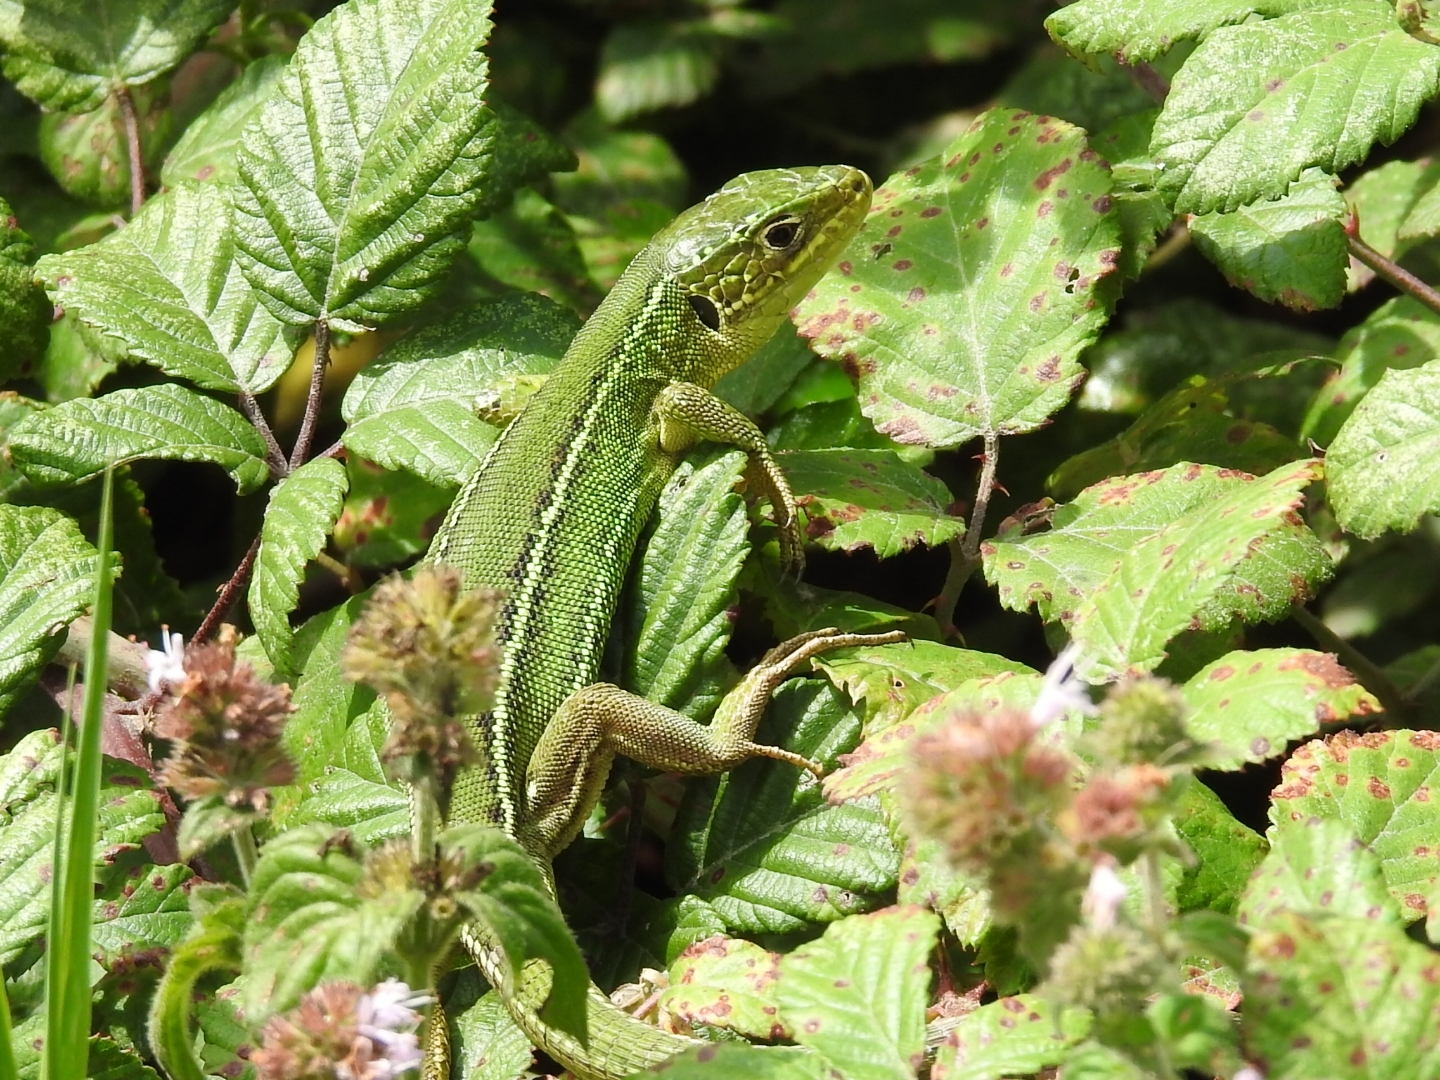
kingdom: Animalia
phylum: Chordata
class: Squamata
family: Lacertidae
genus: Lacerta
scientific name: Lacerta bilineata
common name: Western green lizard
